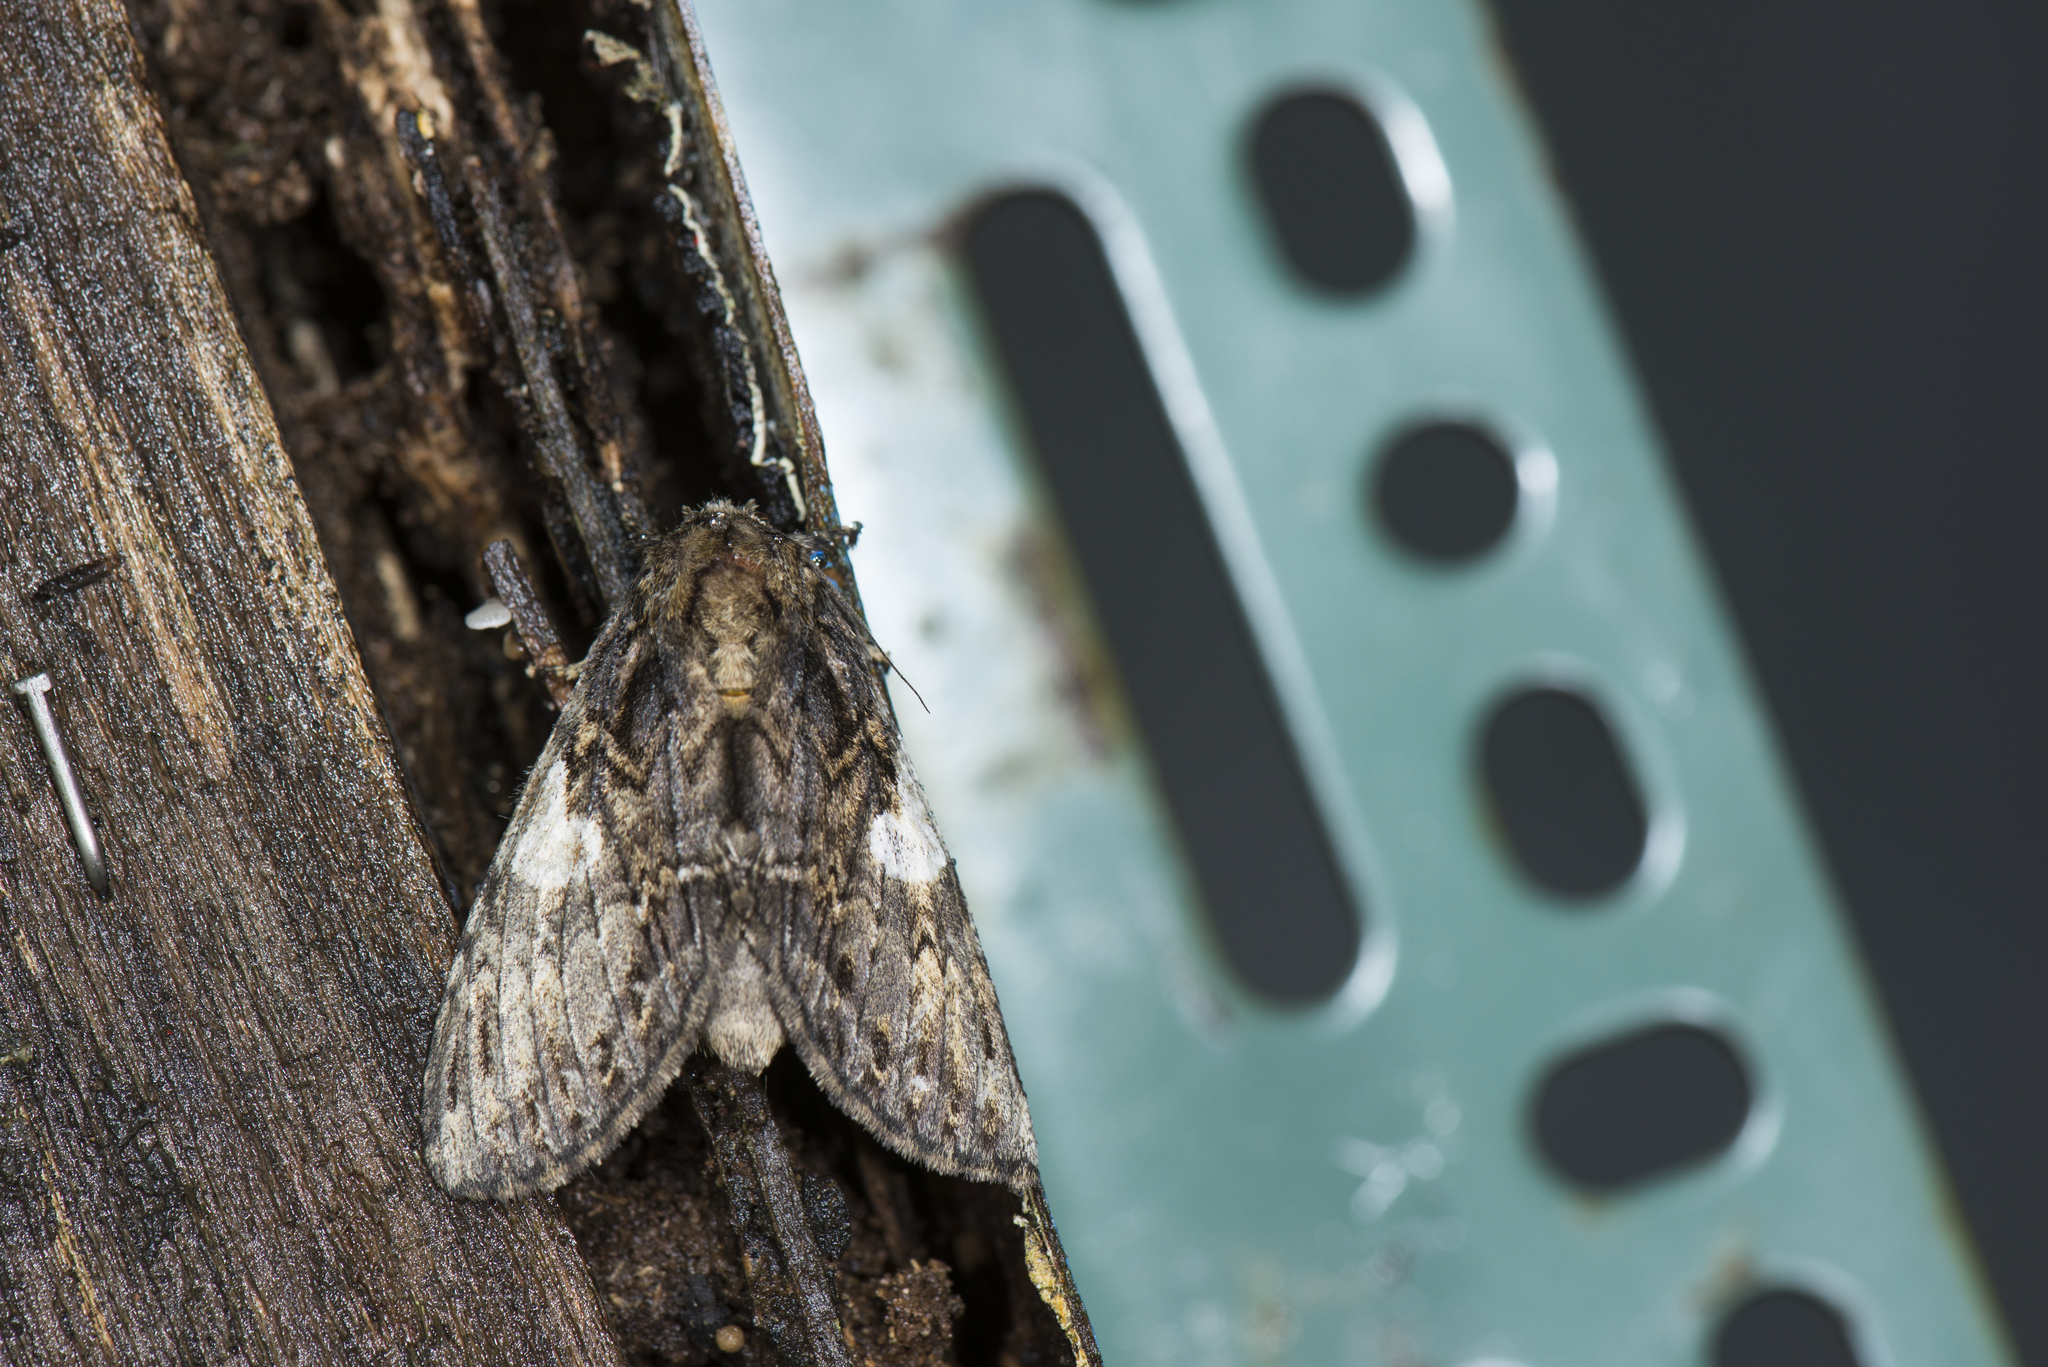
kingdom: Animalia
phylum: Arthropoda
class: Insecta
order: Lepidoptera
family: Notodontidae
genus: Rachiades
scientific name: Rachiades lichenicolor
